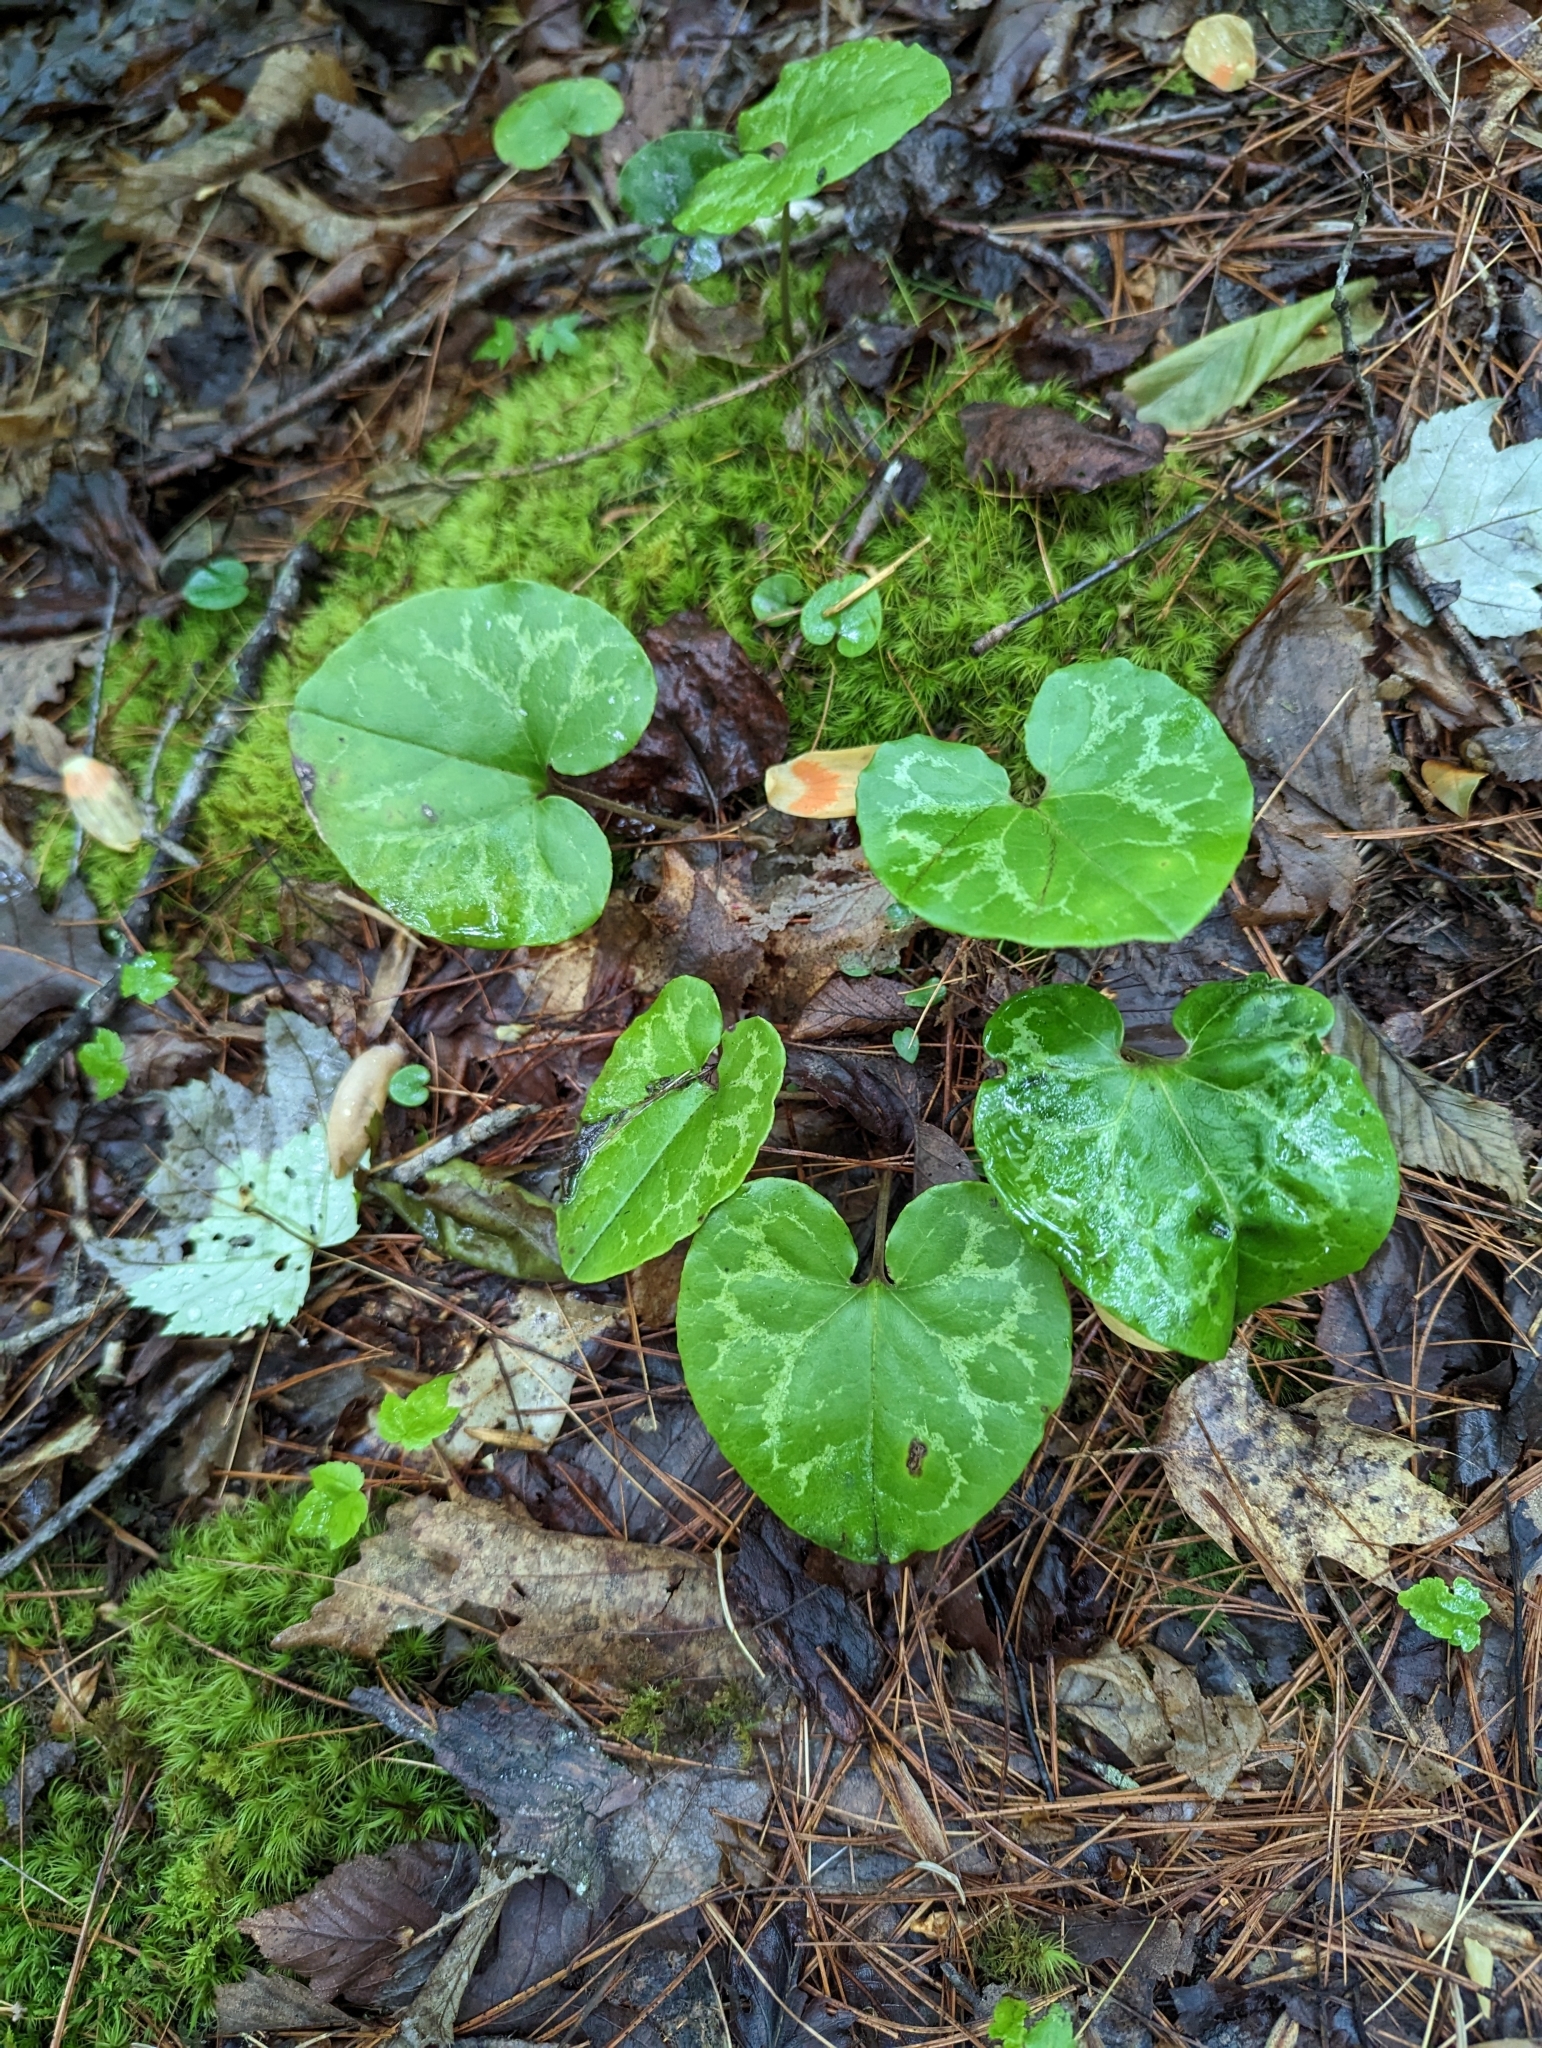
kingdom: Plantae
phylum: Tracheophyta
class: Magnoliopsida
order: Piperales
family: Aristolochiaceae
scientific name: Aristolochiaceae
